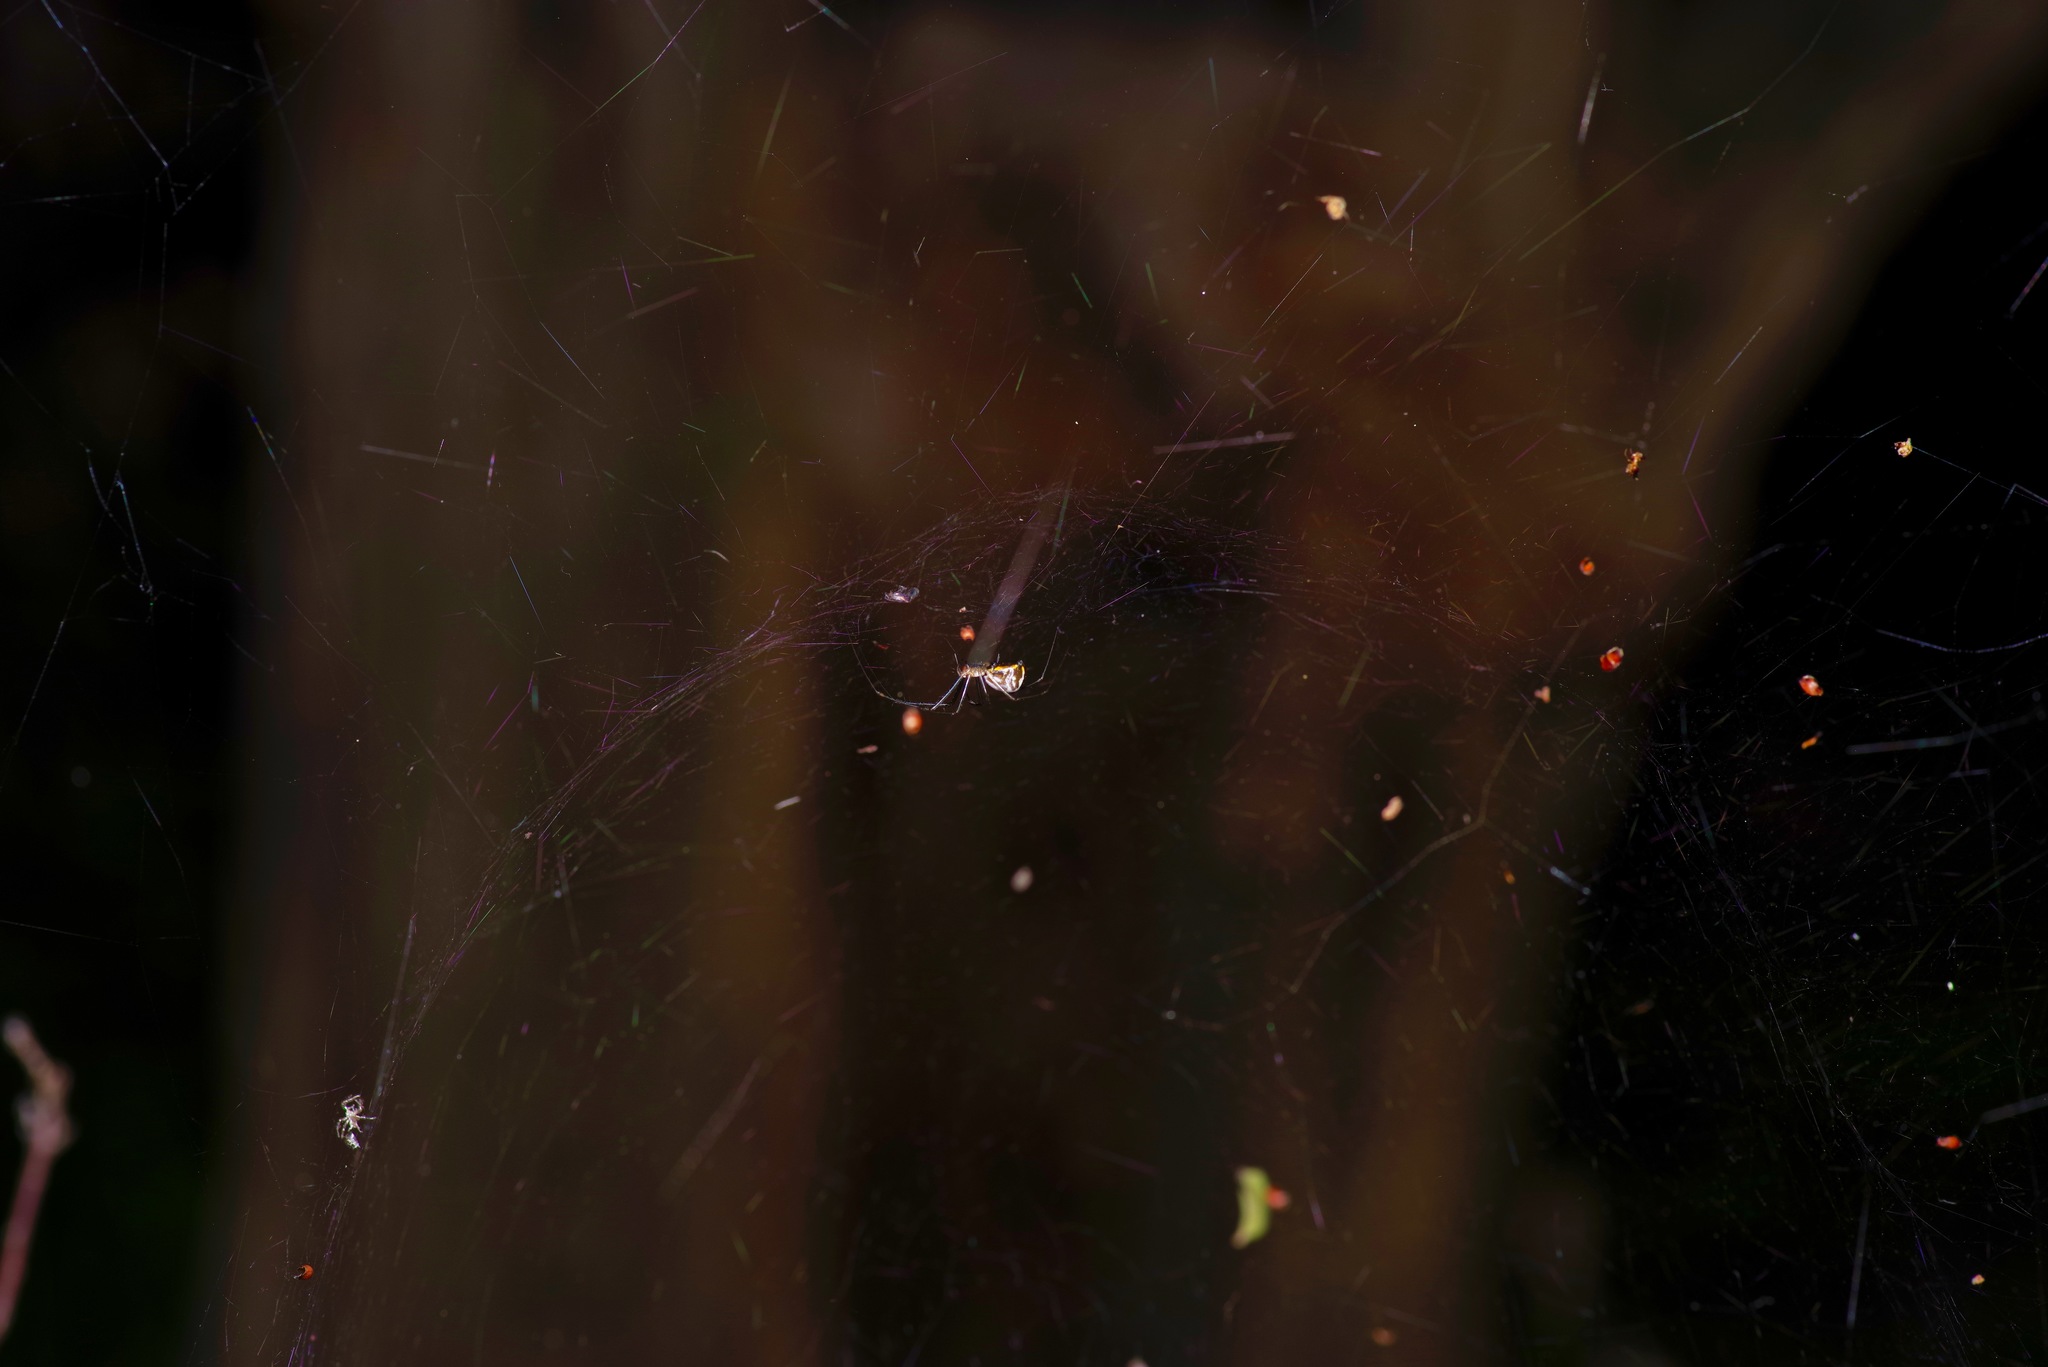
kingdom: Animalia
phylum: Arthropoda
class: Arachnida
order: Araneae
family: Linyphiidae
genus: Neriene
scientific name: Neriene radiata
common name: Filmy dome spider
